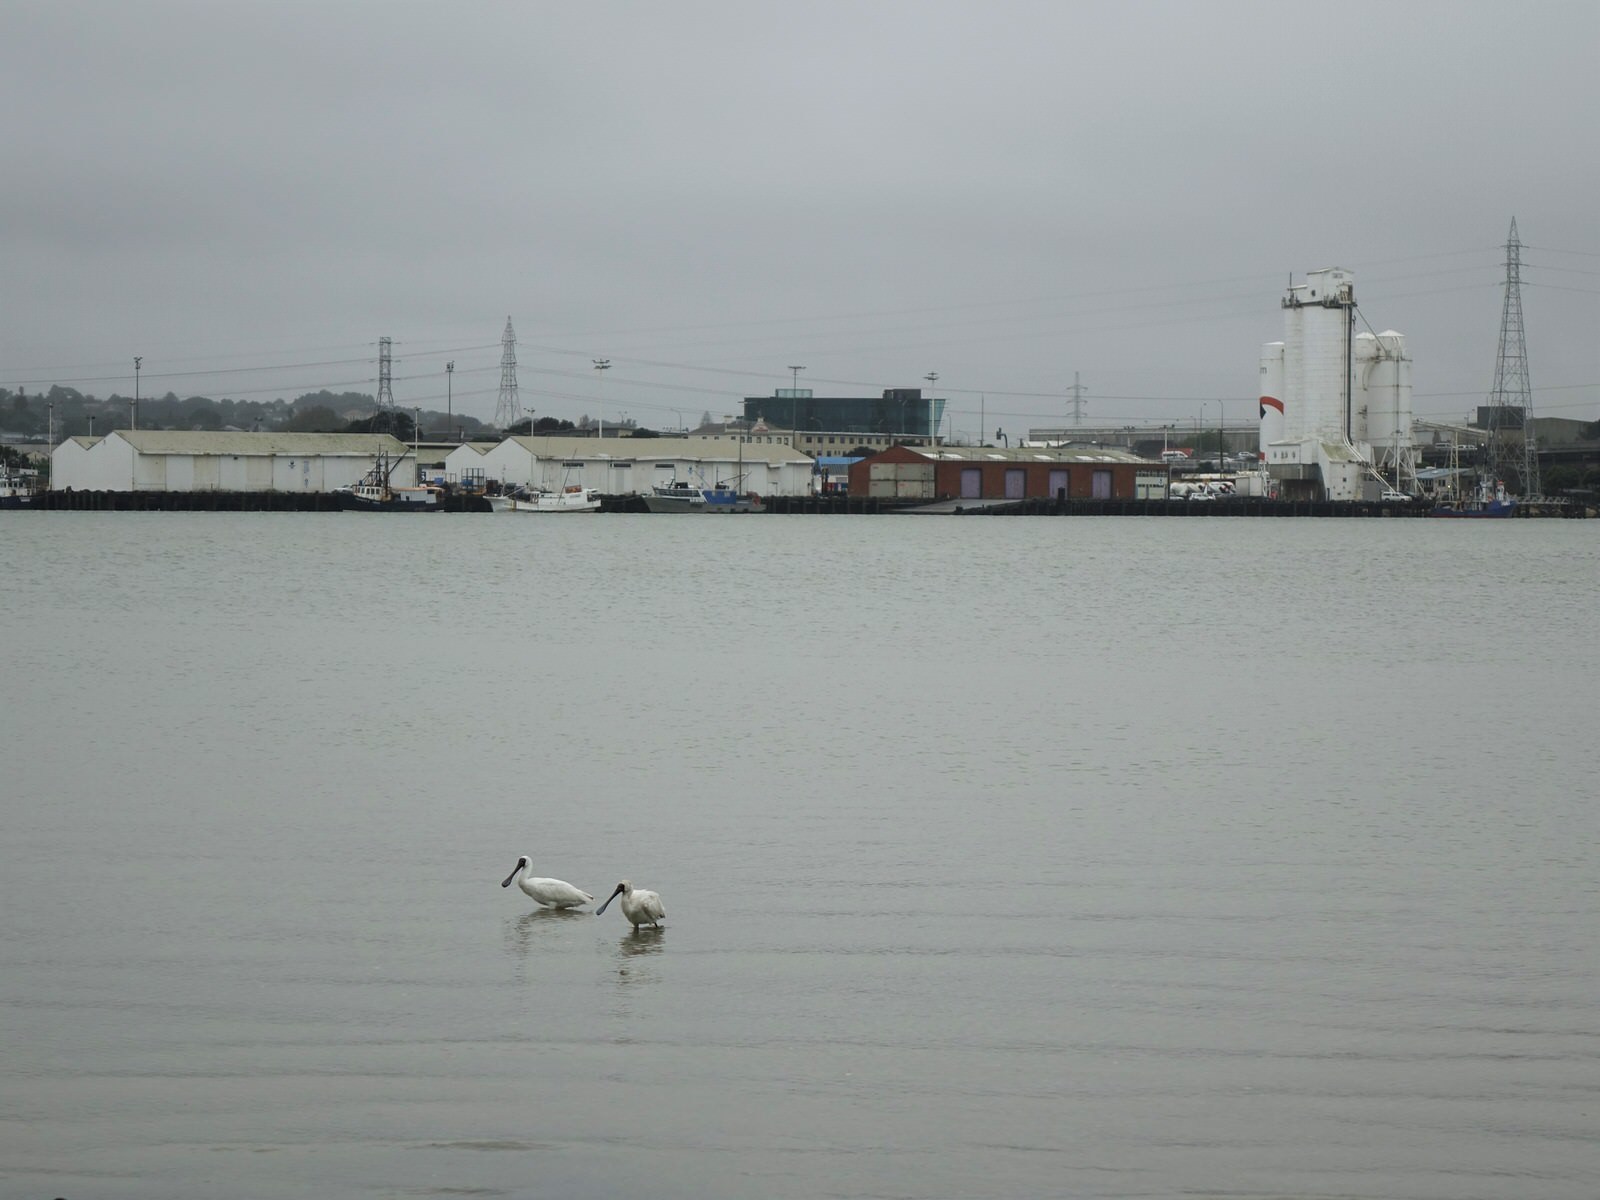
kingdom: Animalia
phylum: Chordata
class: Aves
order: Pelecaniformes
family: Threskiornithidae
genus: Platalea
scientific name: Platalea regia
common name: Royal spoonbill
